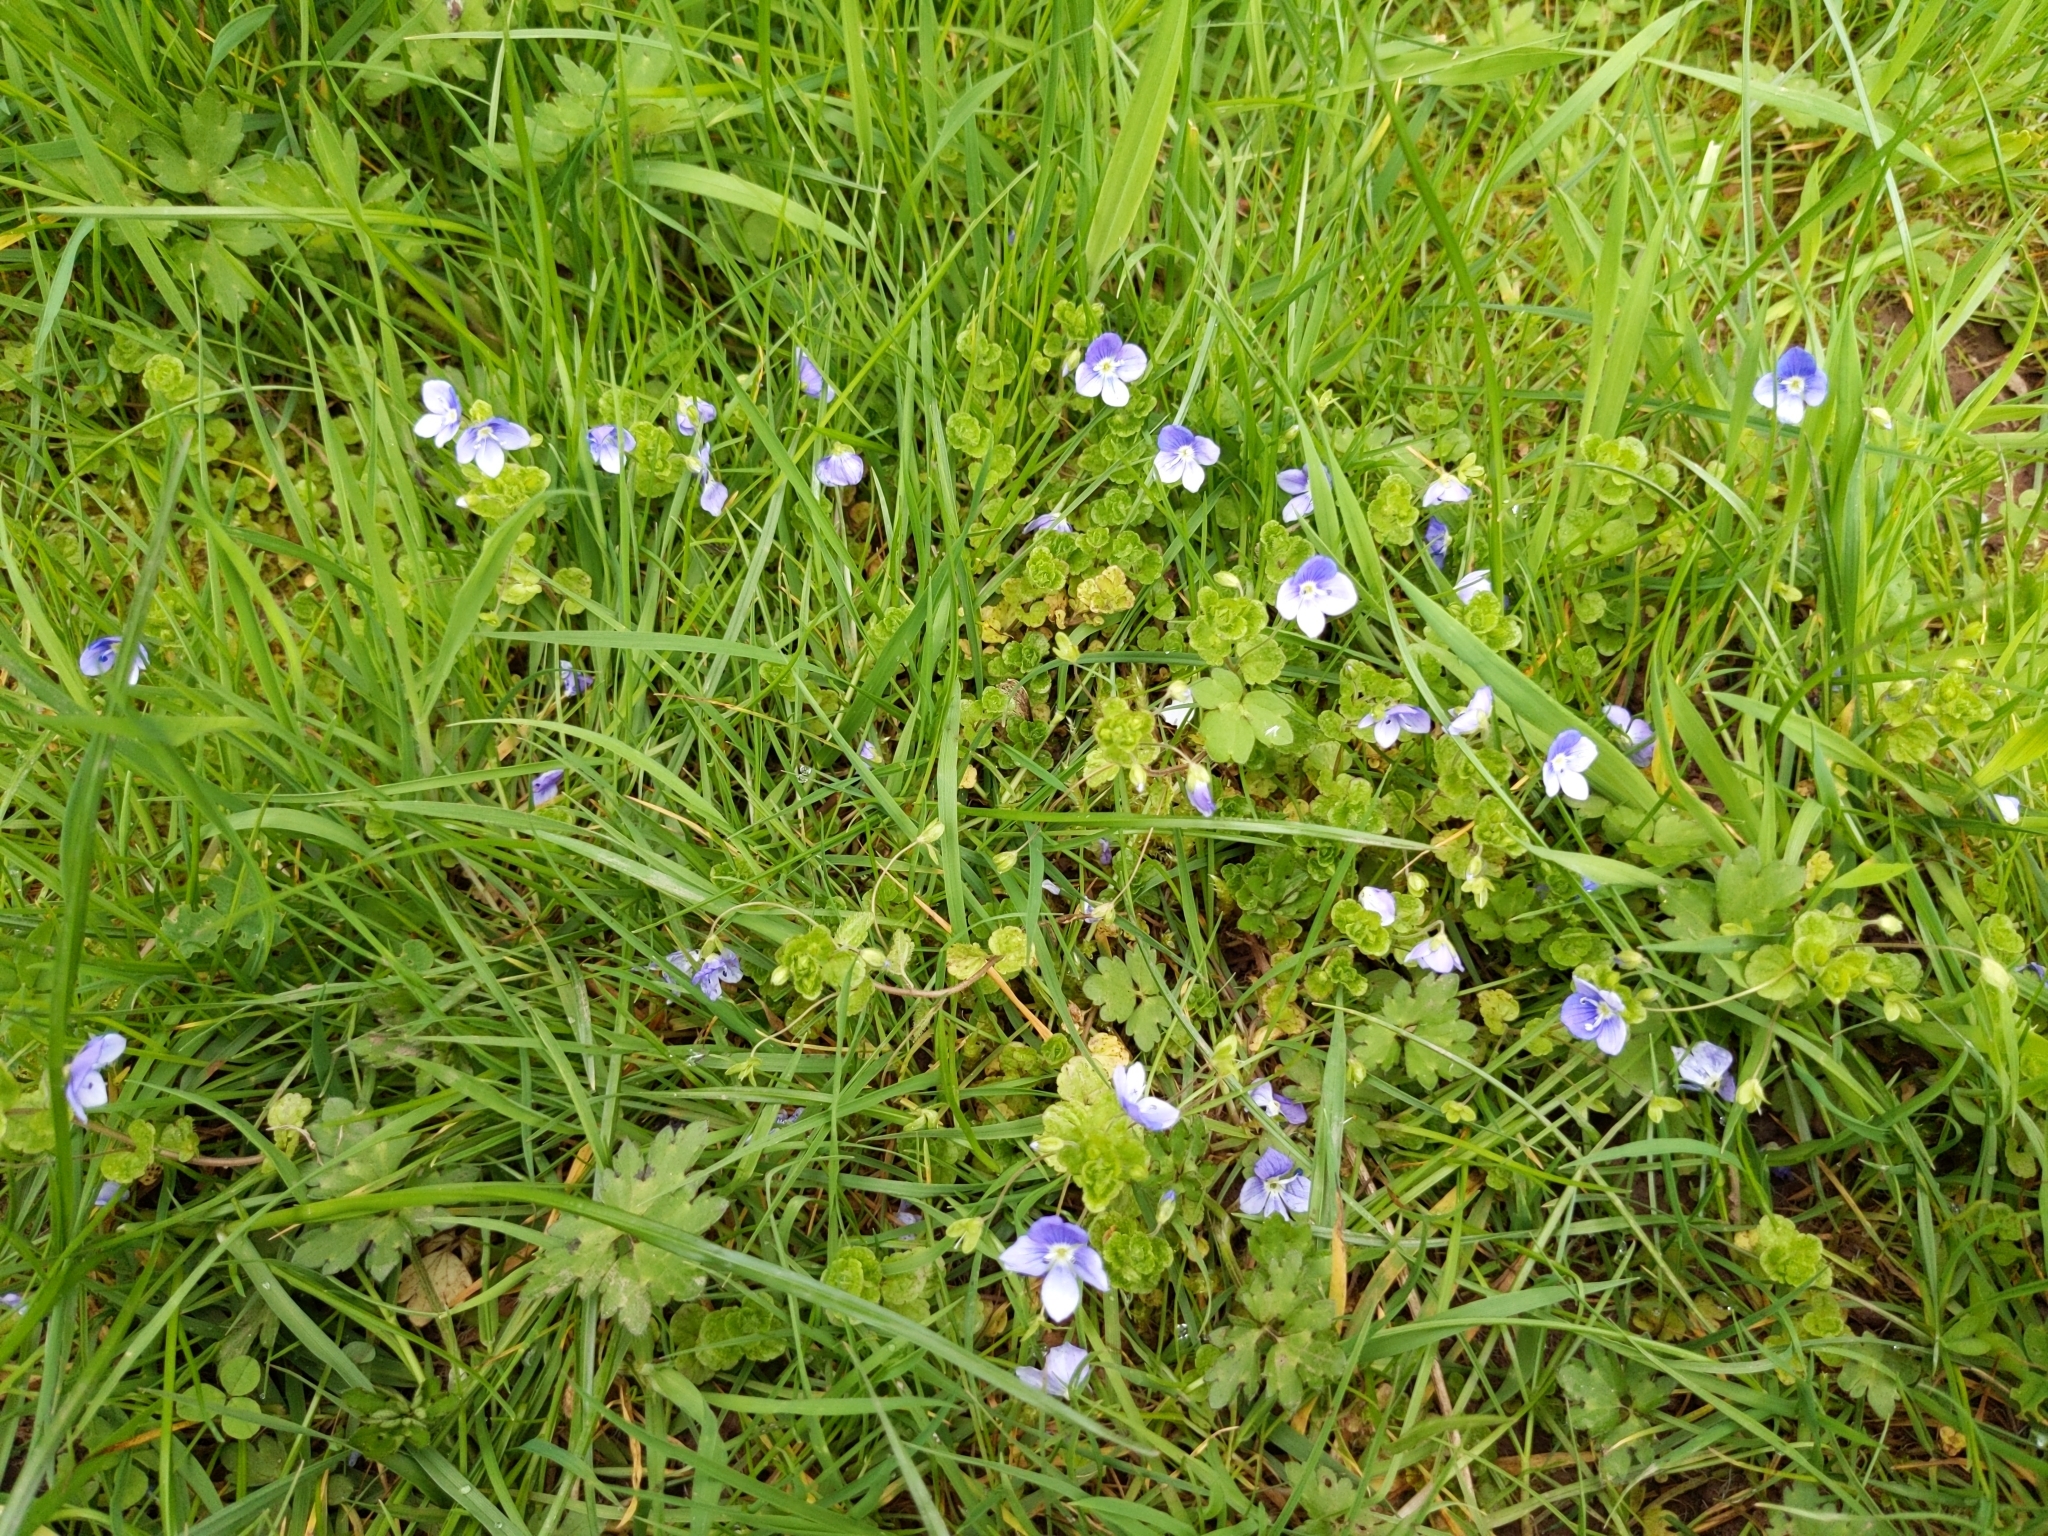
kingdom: Plantae
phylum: Tracheophyta
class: Magnoliopsida
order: Lamiales
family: Plantaginaceae
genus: Veronica
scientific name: Veronica persica
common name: Common field-speedwell
